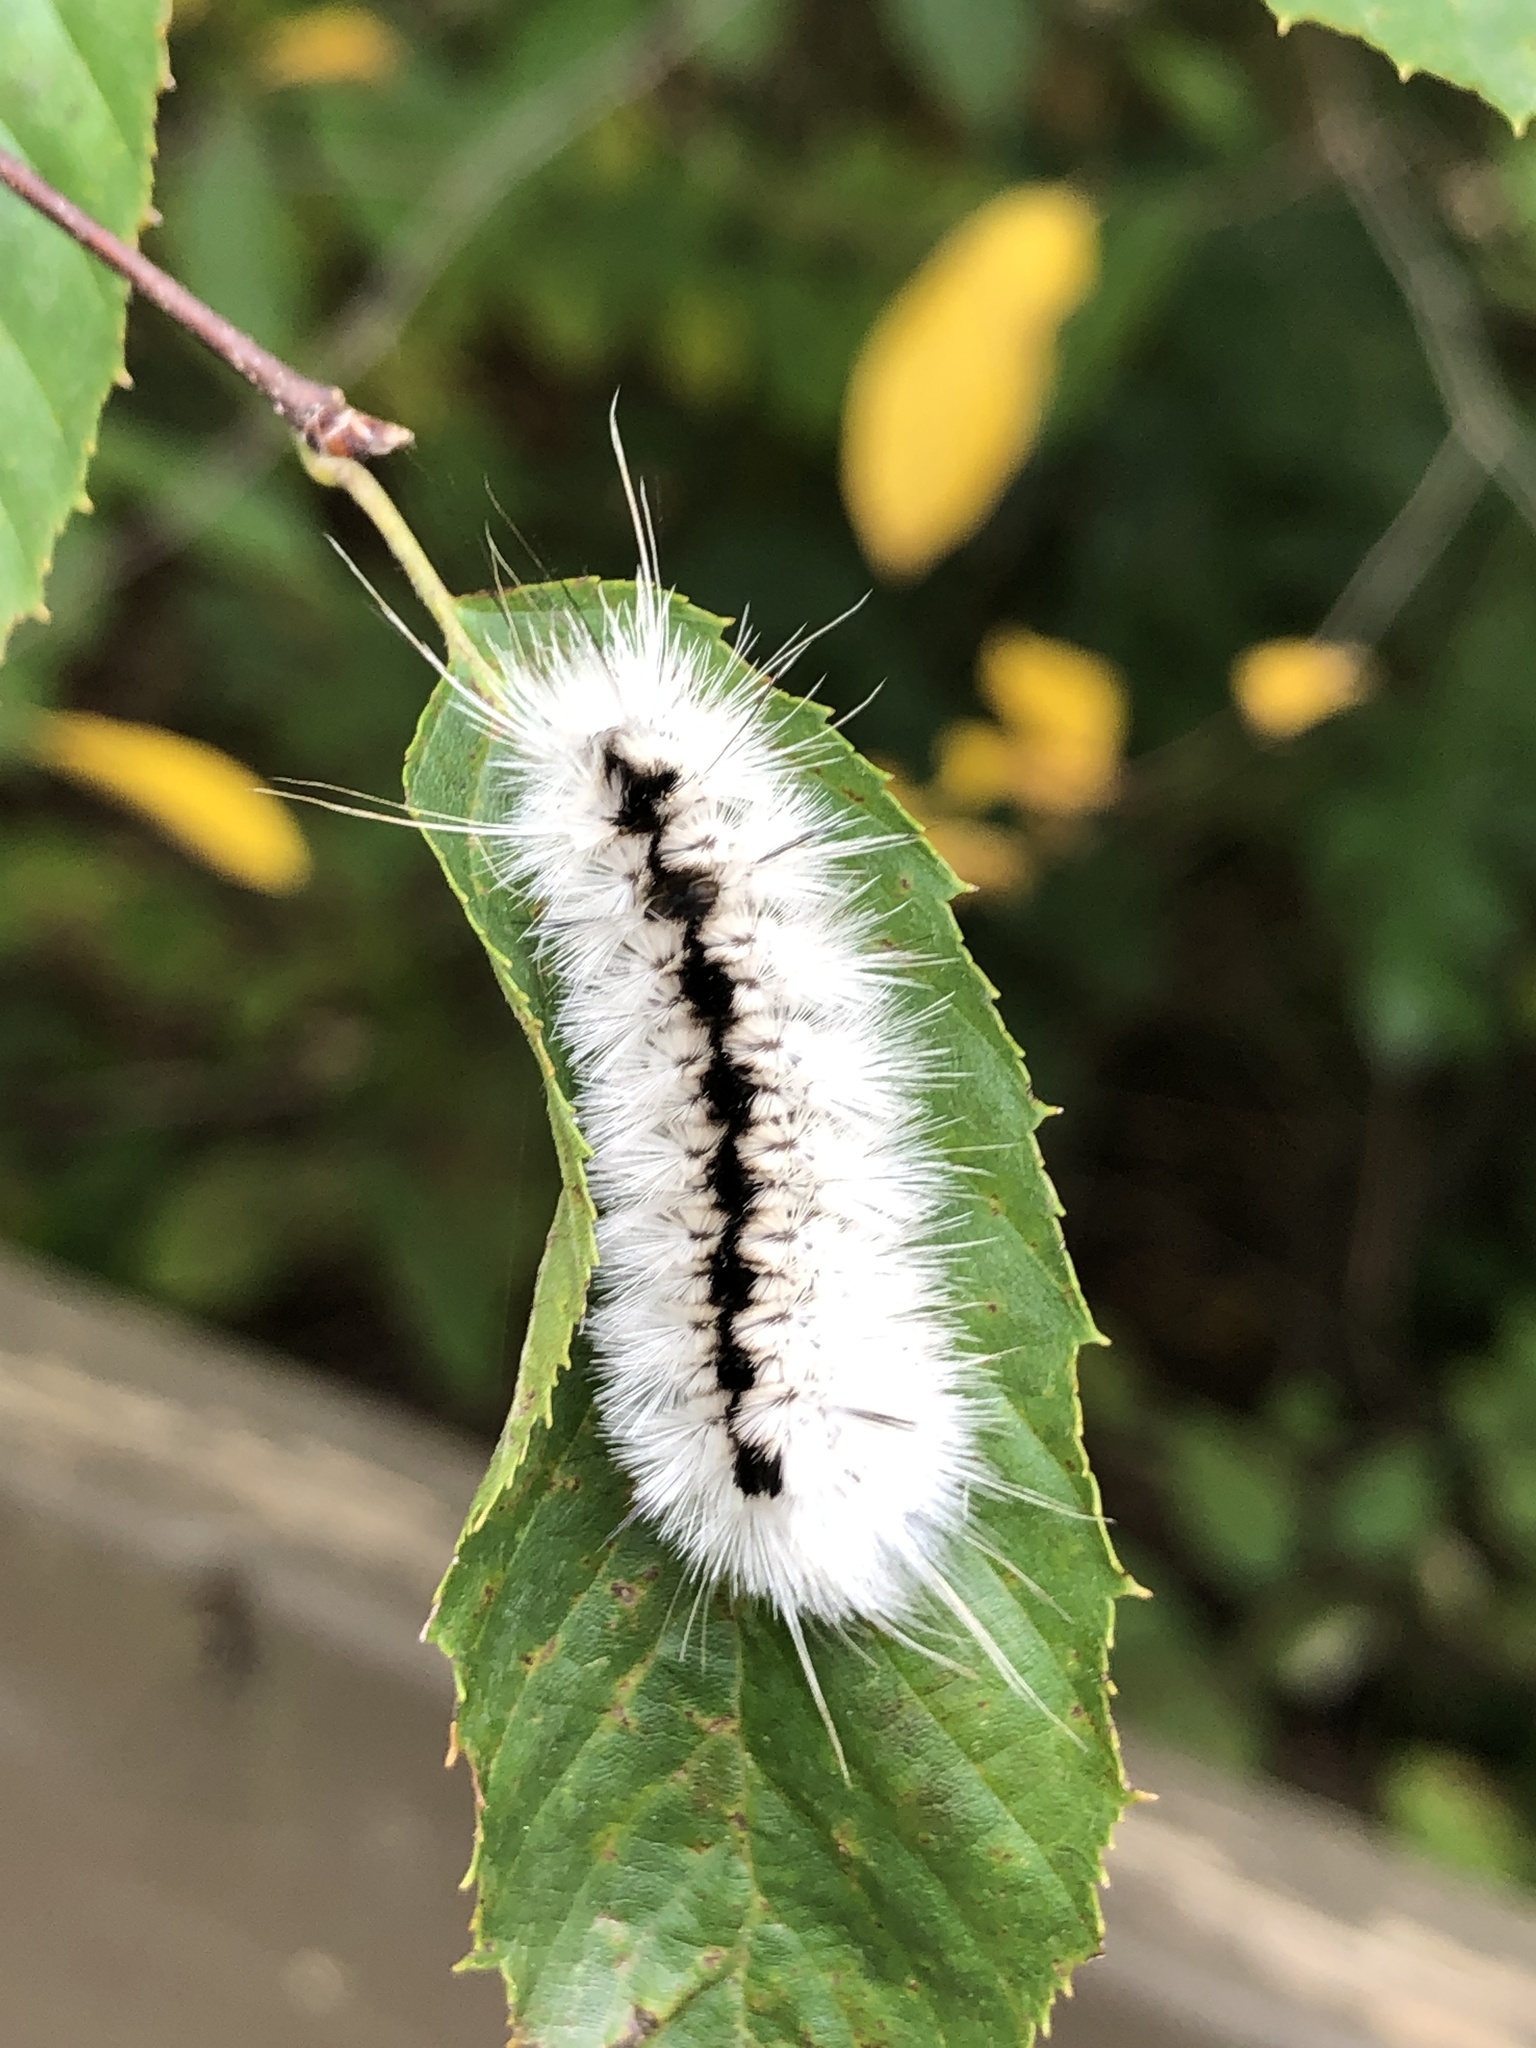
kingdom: Animalia
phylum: Arthropoda
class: Insecta
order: Lepidoptera
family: Erebidae
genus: Lophocampa
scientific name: Lophocampa caryae
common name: Hickory tussock moth
